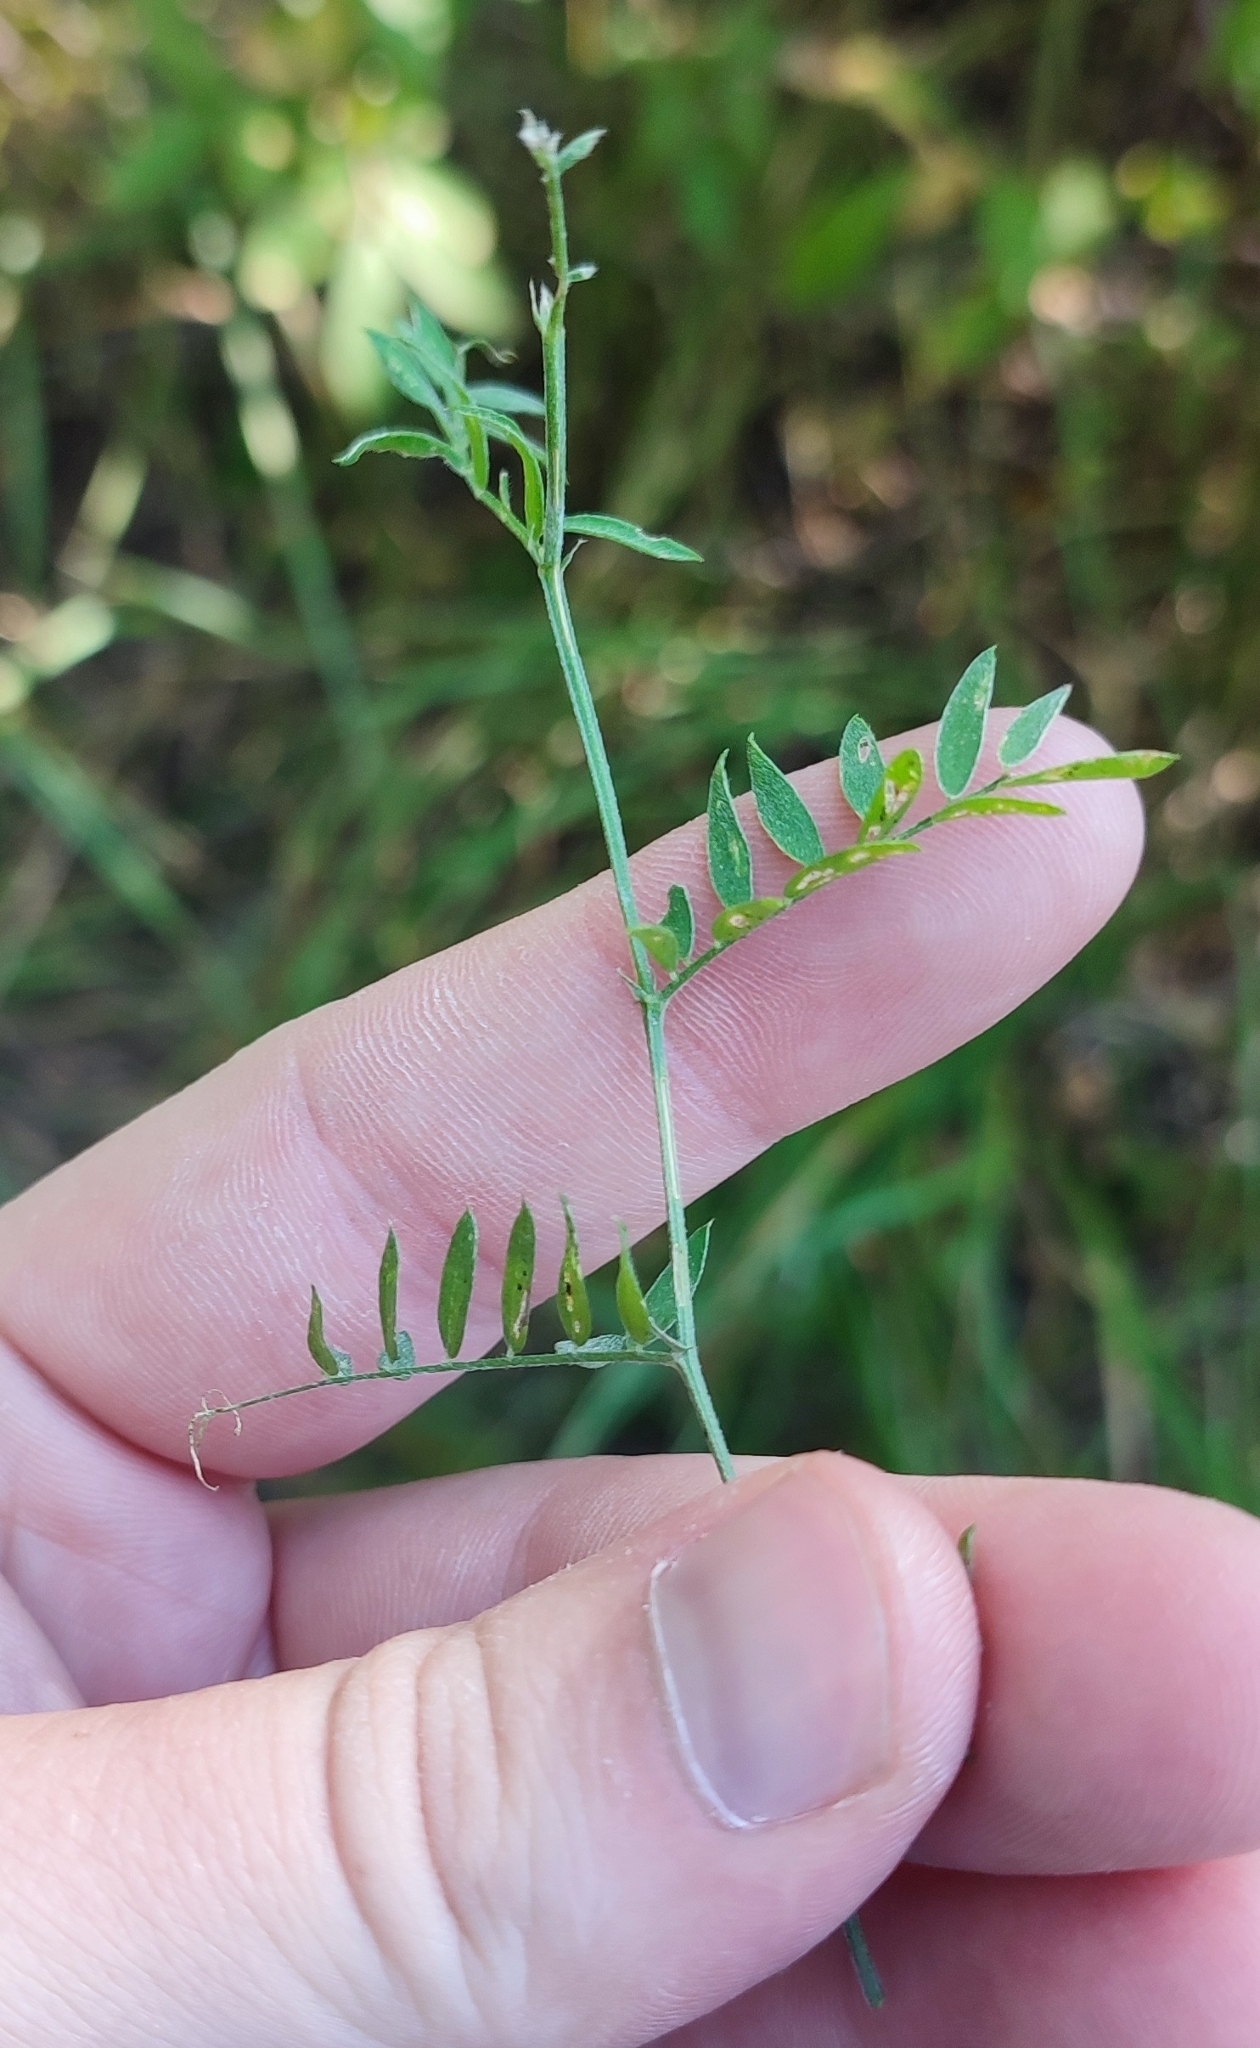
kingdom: Plantae
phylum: Tracheophyta
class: Magnoliopsida
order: Fabales
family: Fabaceae
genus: Vicia
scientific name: Vicia cracca
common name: Bird vetch
